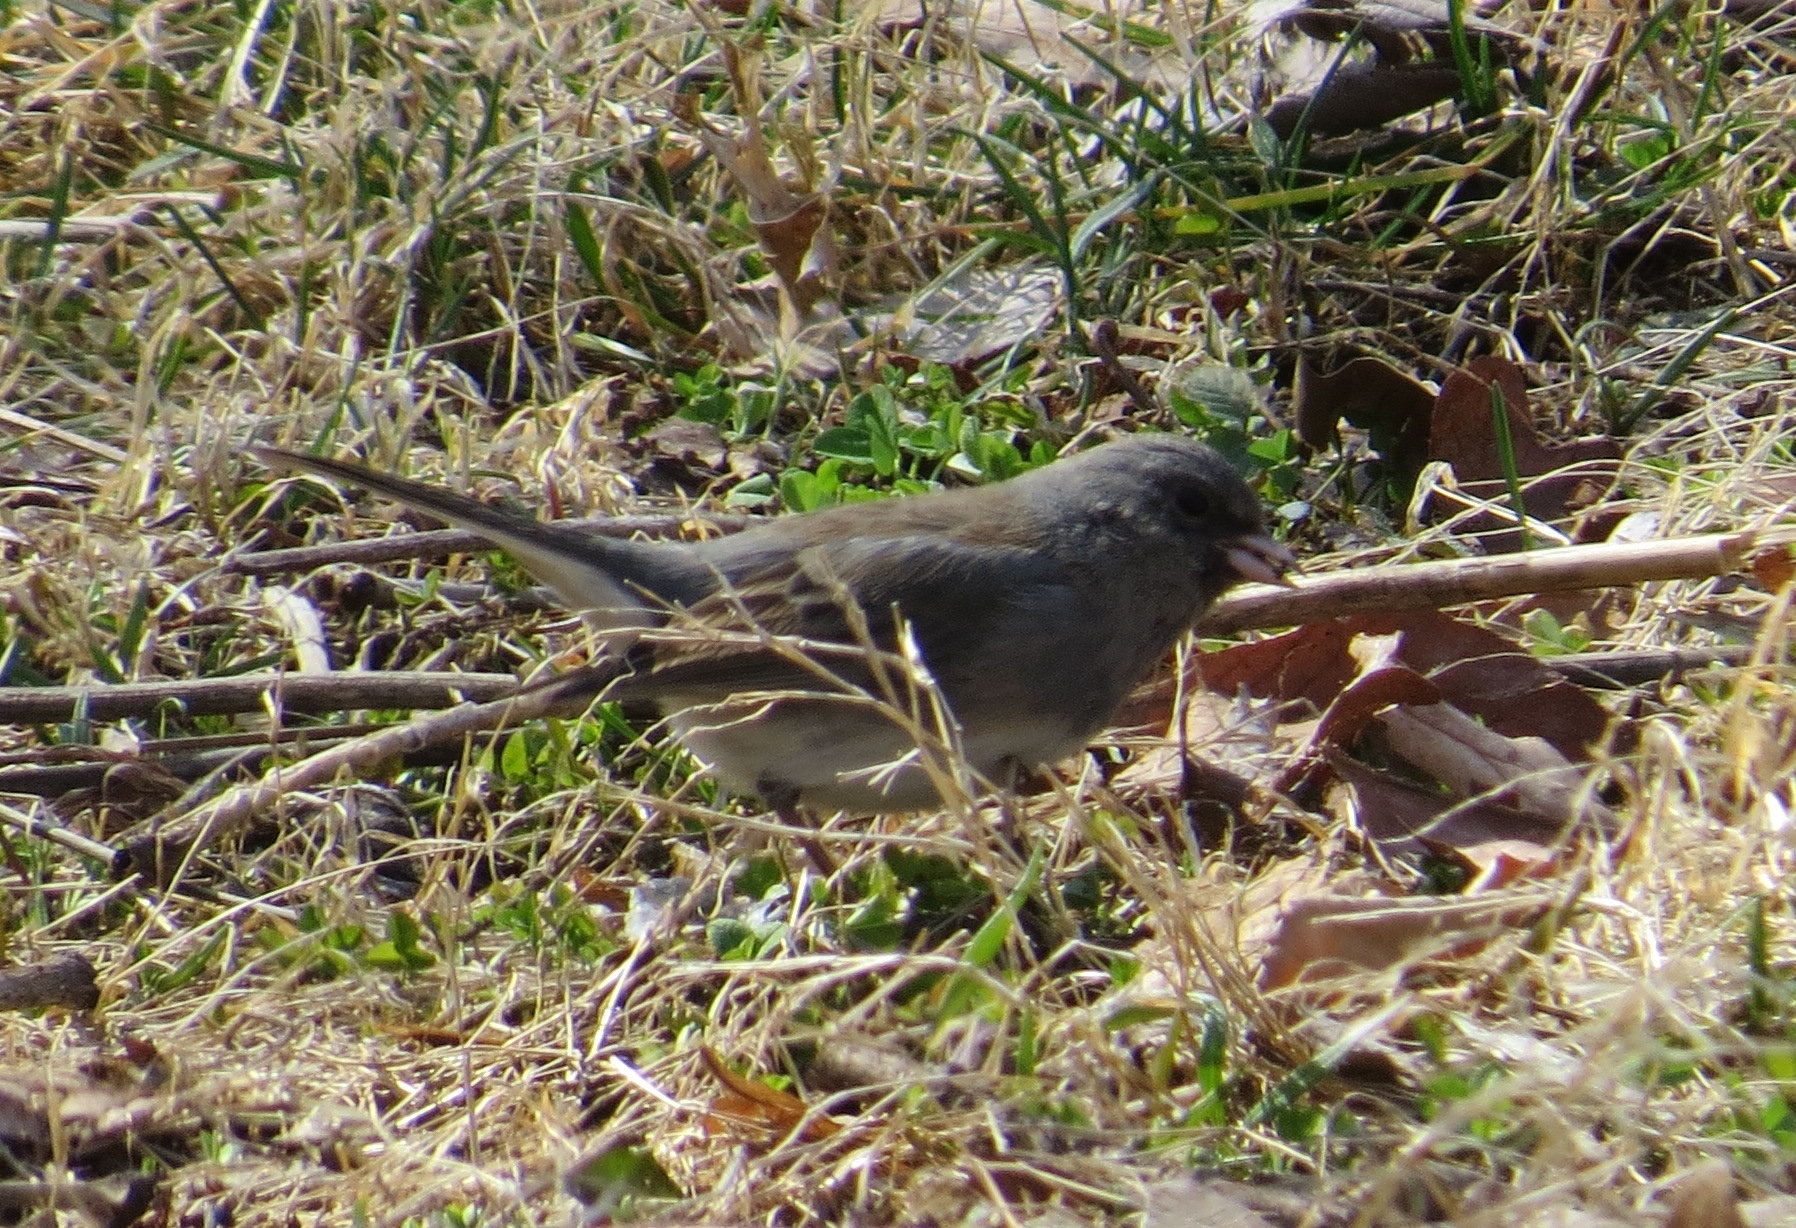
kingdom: Animalia
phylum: Chordata
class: Aves
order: Passeriformes
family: Passerellidae
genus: Junco
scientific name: Junco hyemalis
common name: Dark-eyed junco
